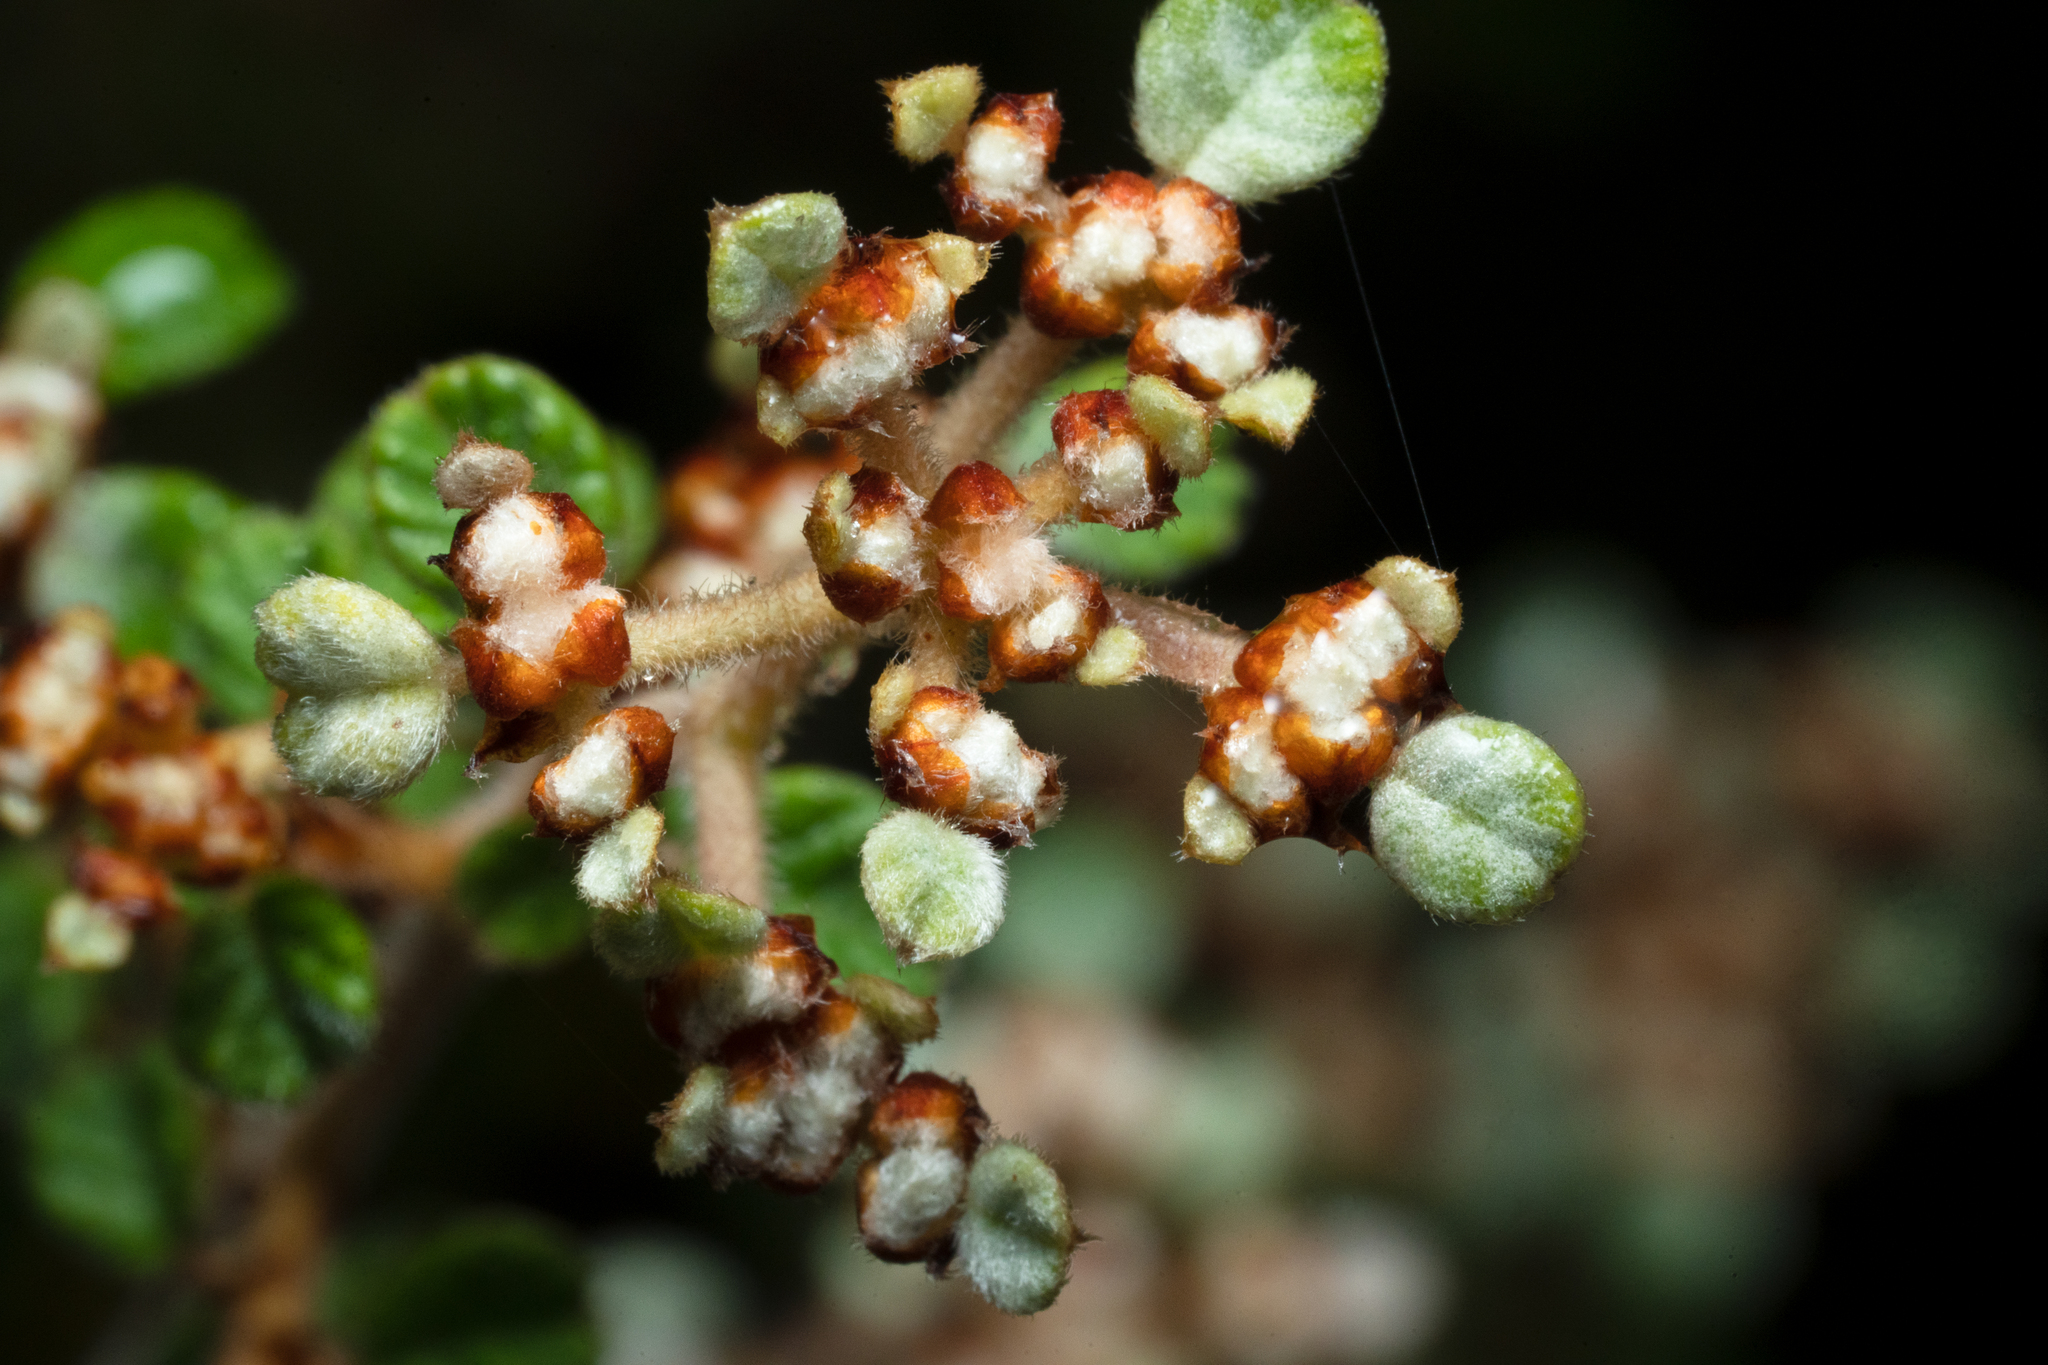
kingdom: Plantae
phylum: Tracheophyta
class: Magnoliopsida
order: Rosales
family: Rhamnaceae
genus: Spyridium
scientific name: Spyridium parvifolium
